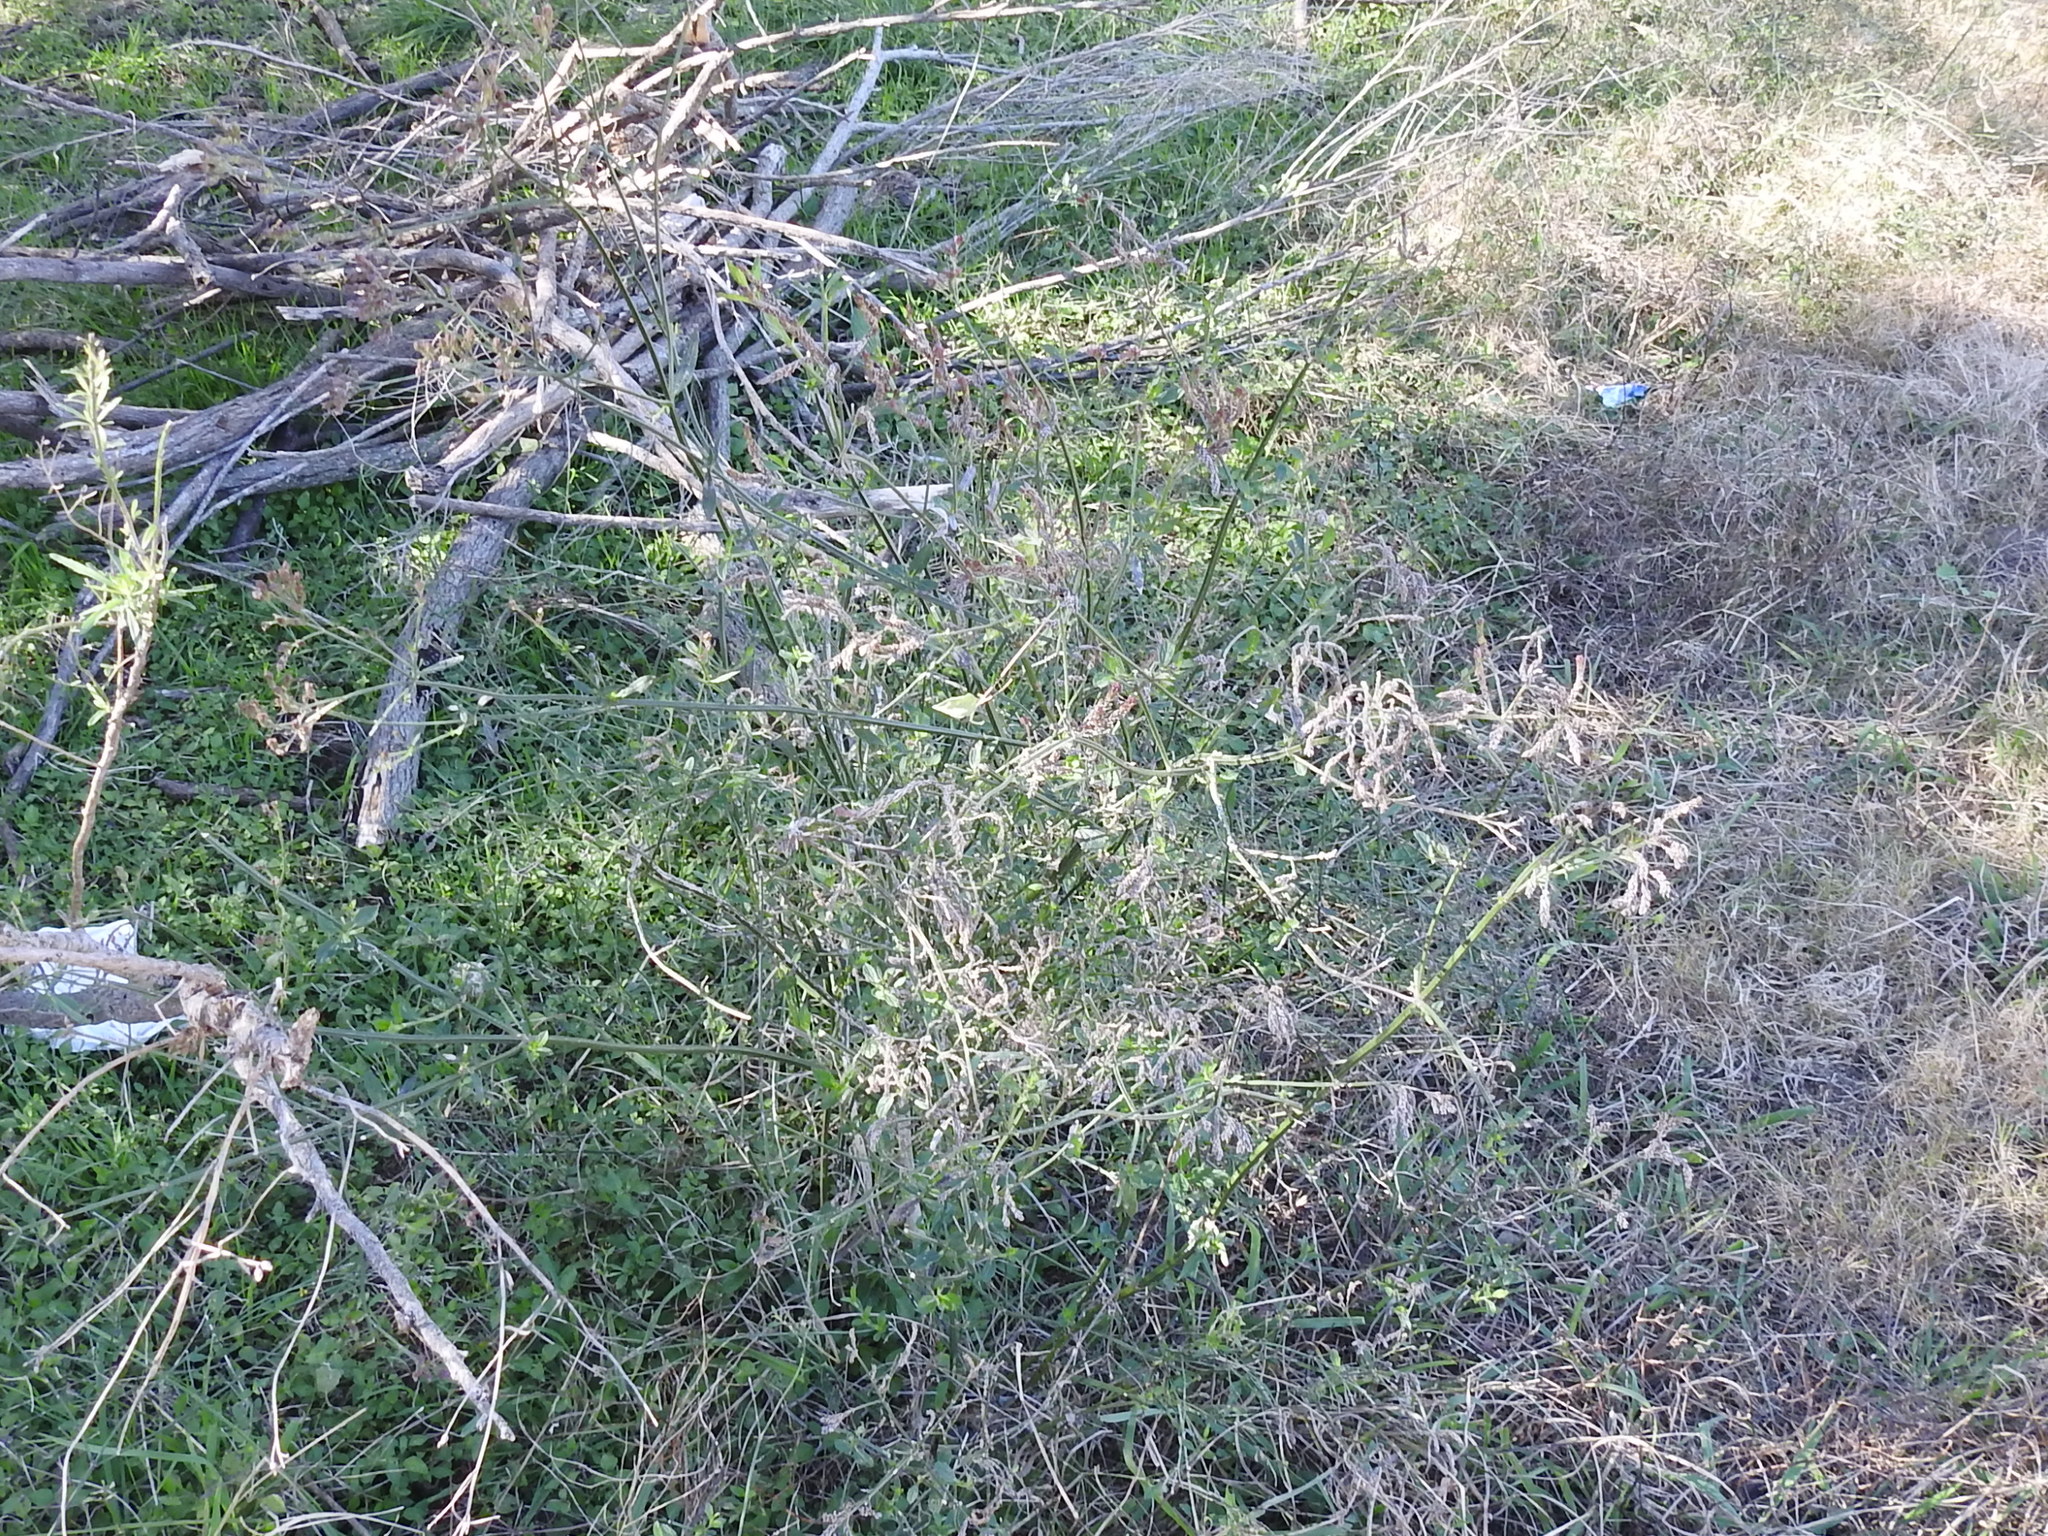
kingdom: Plantae
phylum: Tracheophyta
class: Magnoliopsida
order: Lamiales
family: Verbenaceae
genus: Verbena
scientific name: Verbena brasiliensis
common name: Brazilian vervain
